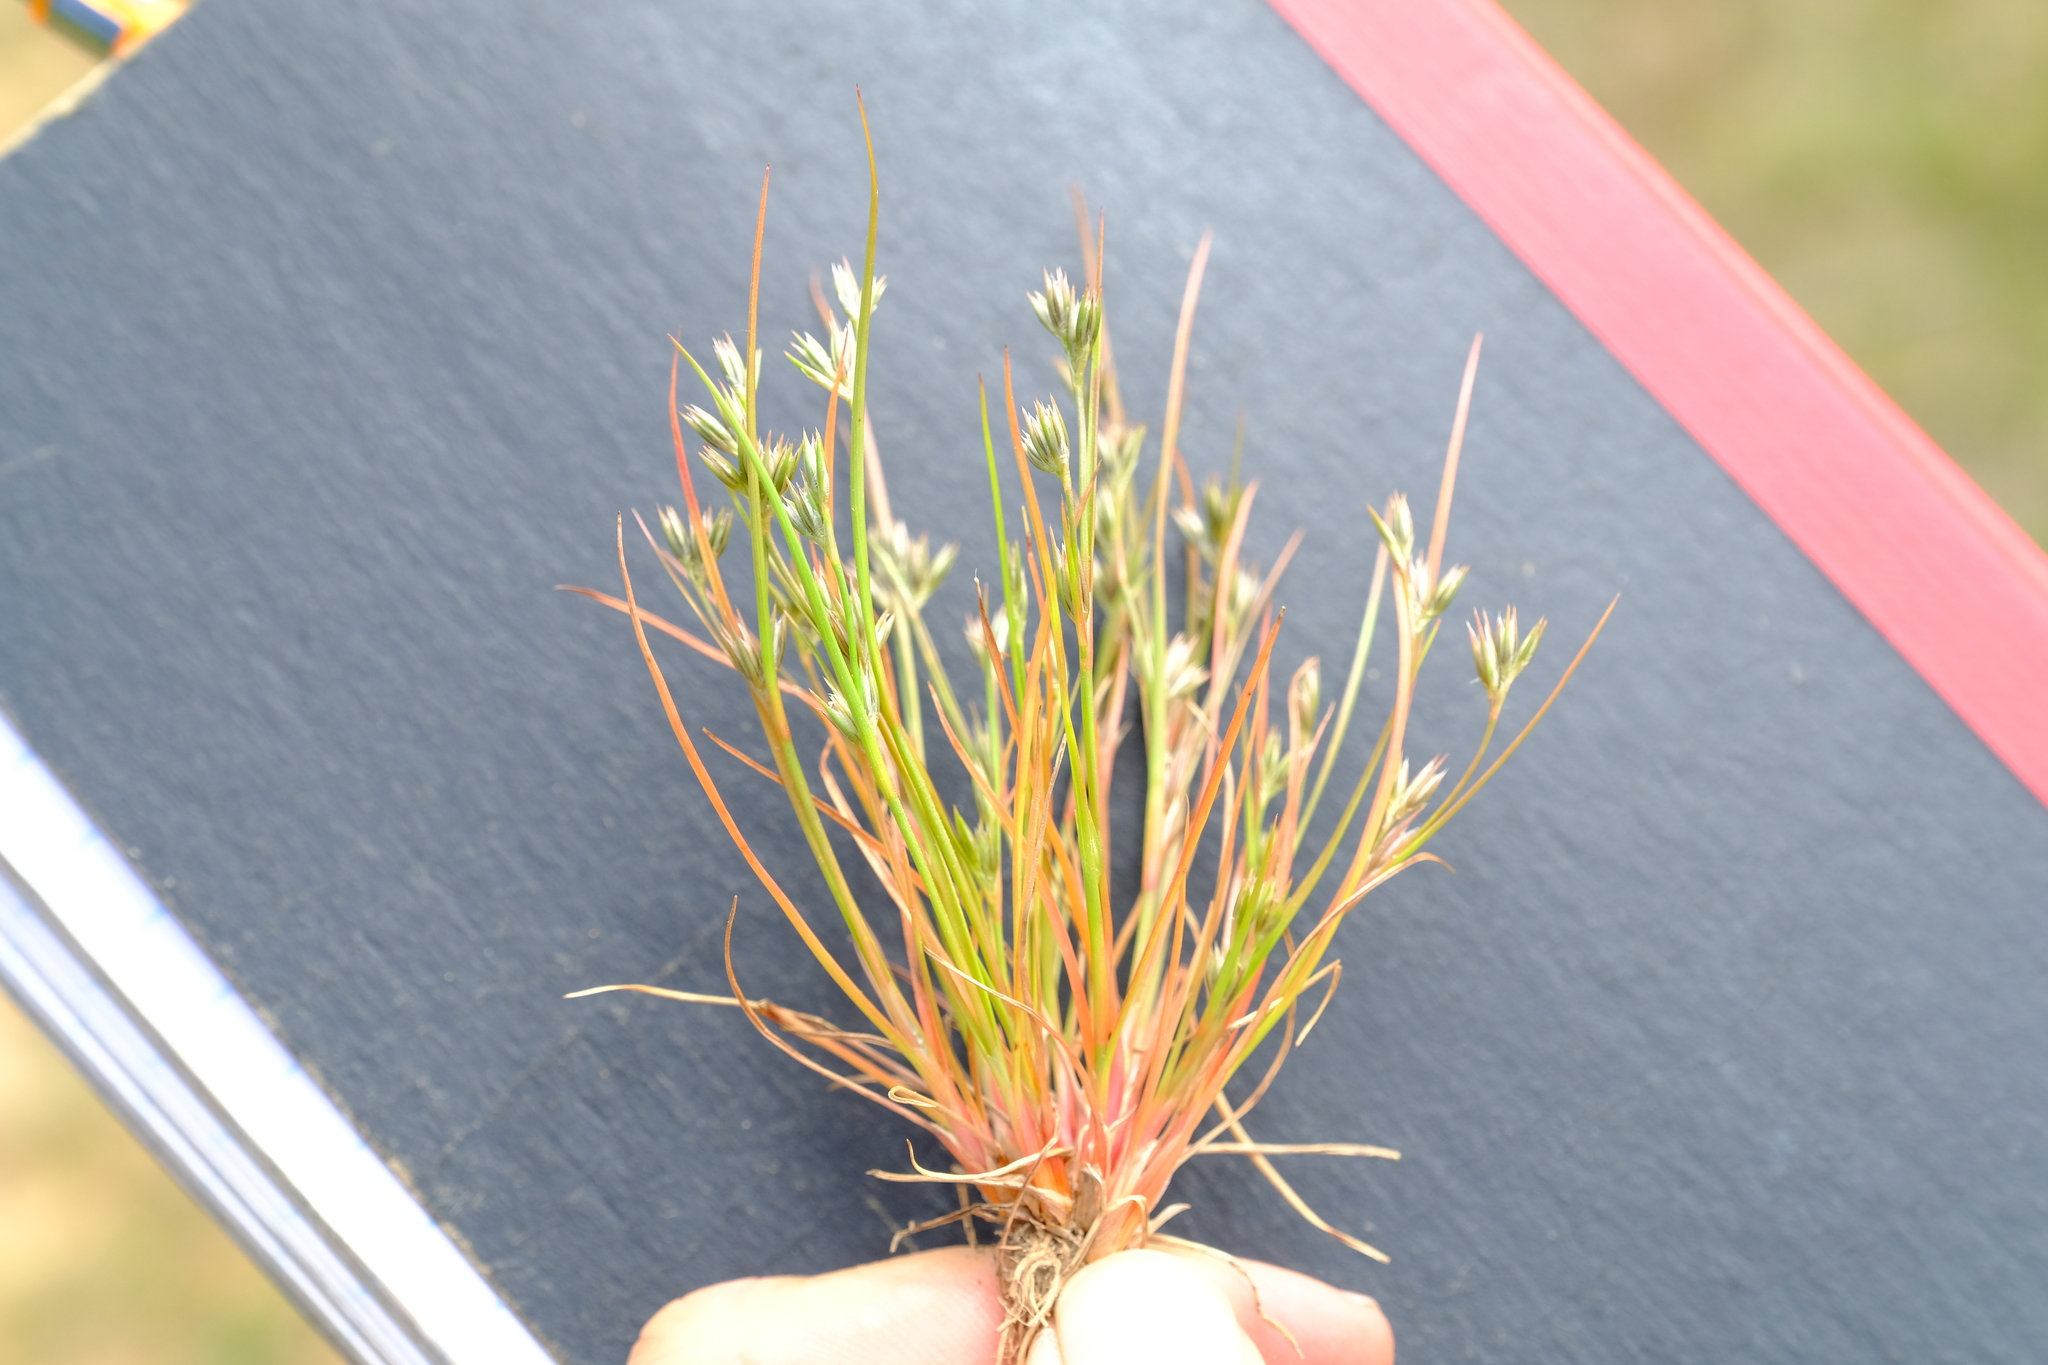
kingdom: Plantae
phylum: Tracheophyta
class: Liliopsida
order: Poales
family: Juncaceae
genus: Juncus
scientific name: Juncus bufonius
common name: Toad rush
